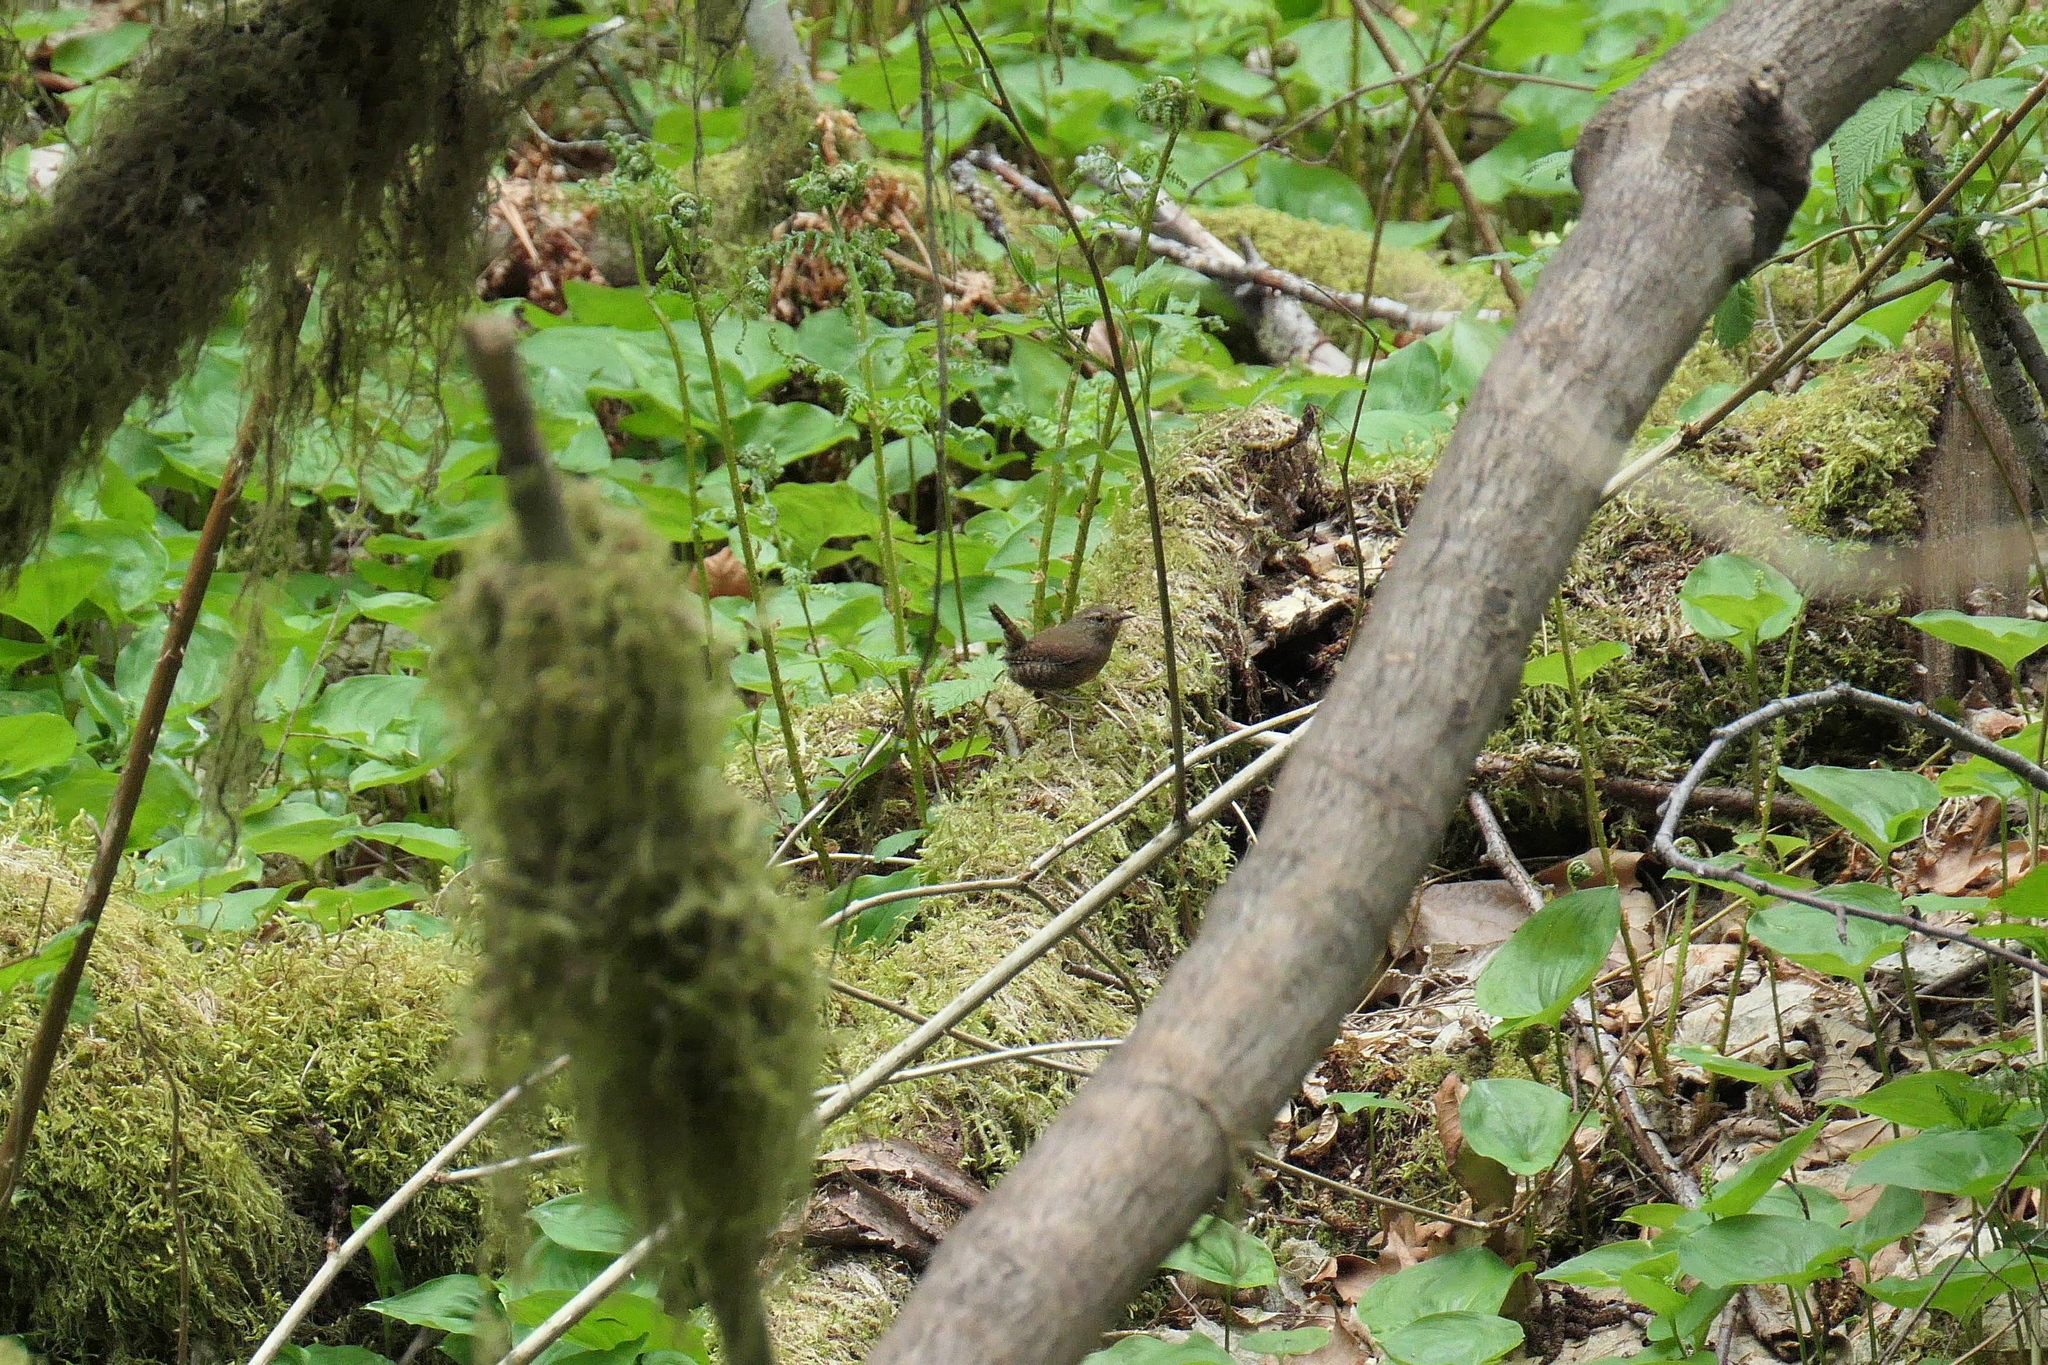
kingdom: Animalia
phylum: Chordata
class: Aves
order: Passeriformes
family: Troglodytidae
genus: Troglodytes
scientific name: Troglodytes pacificus
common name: Pacific wren
